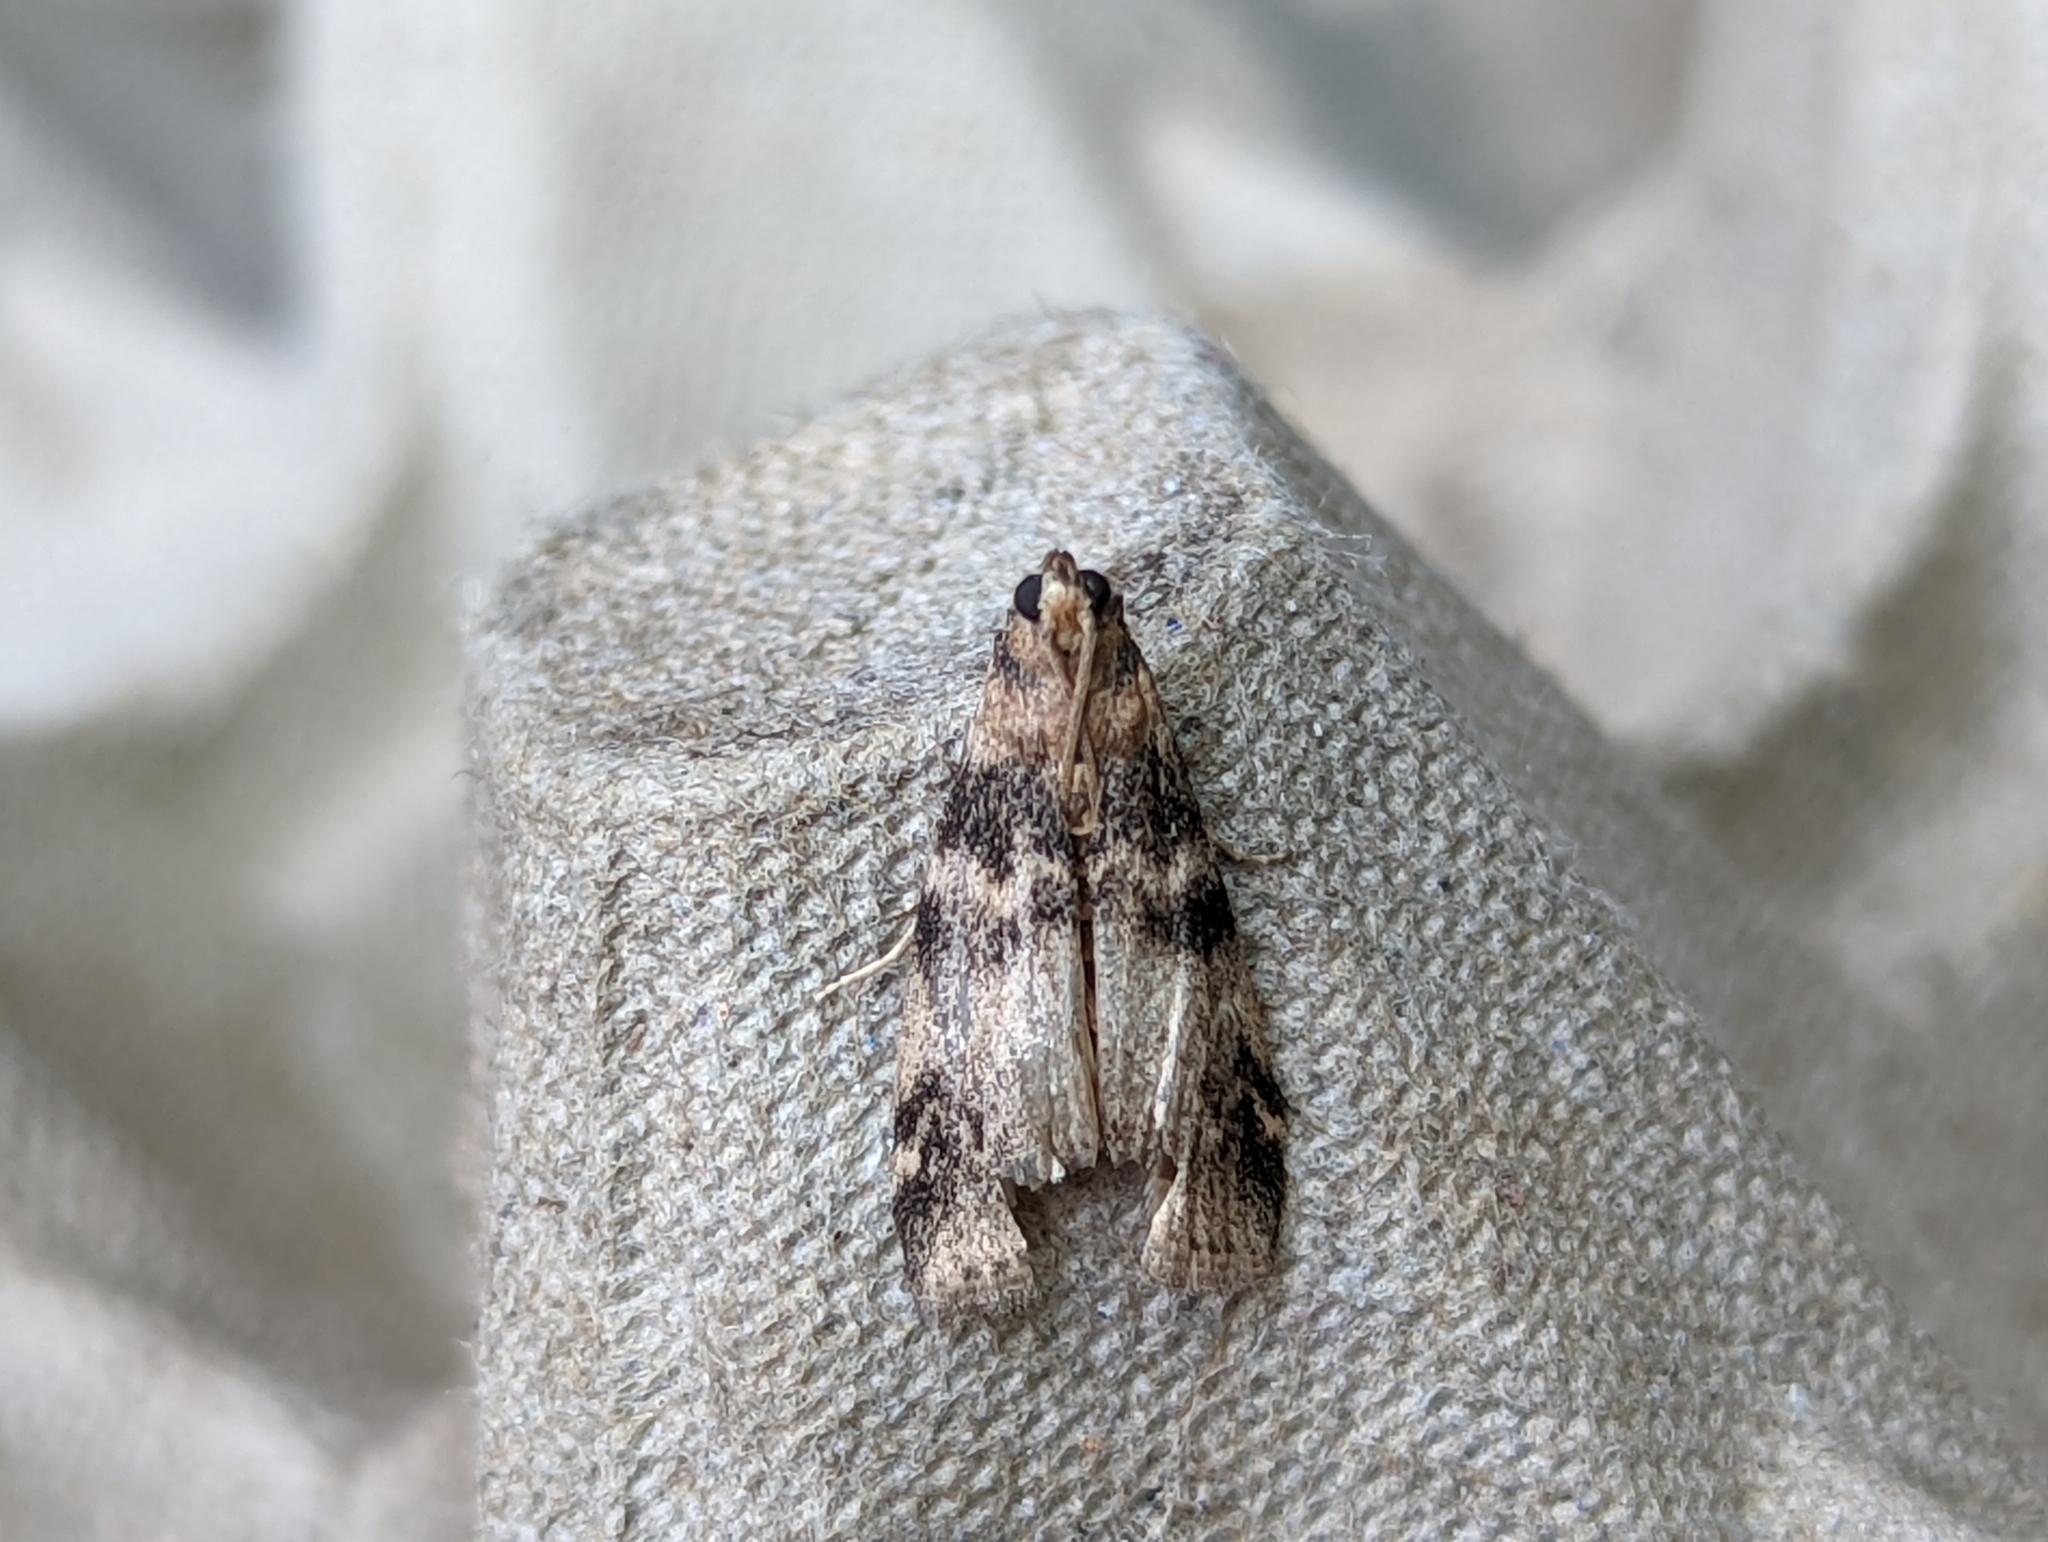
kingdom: Animalia
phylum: Arthropoda
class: Insecta
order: Lepidoptera
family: Pyralidae
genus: Euzophera
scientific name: Euzophera pinguis
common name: Ash-bark knot-horn
